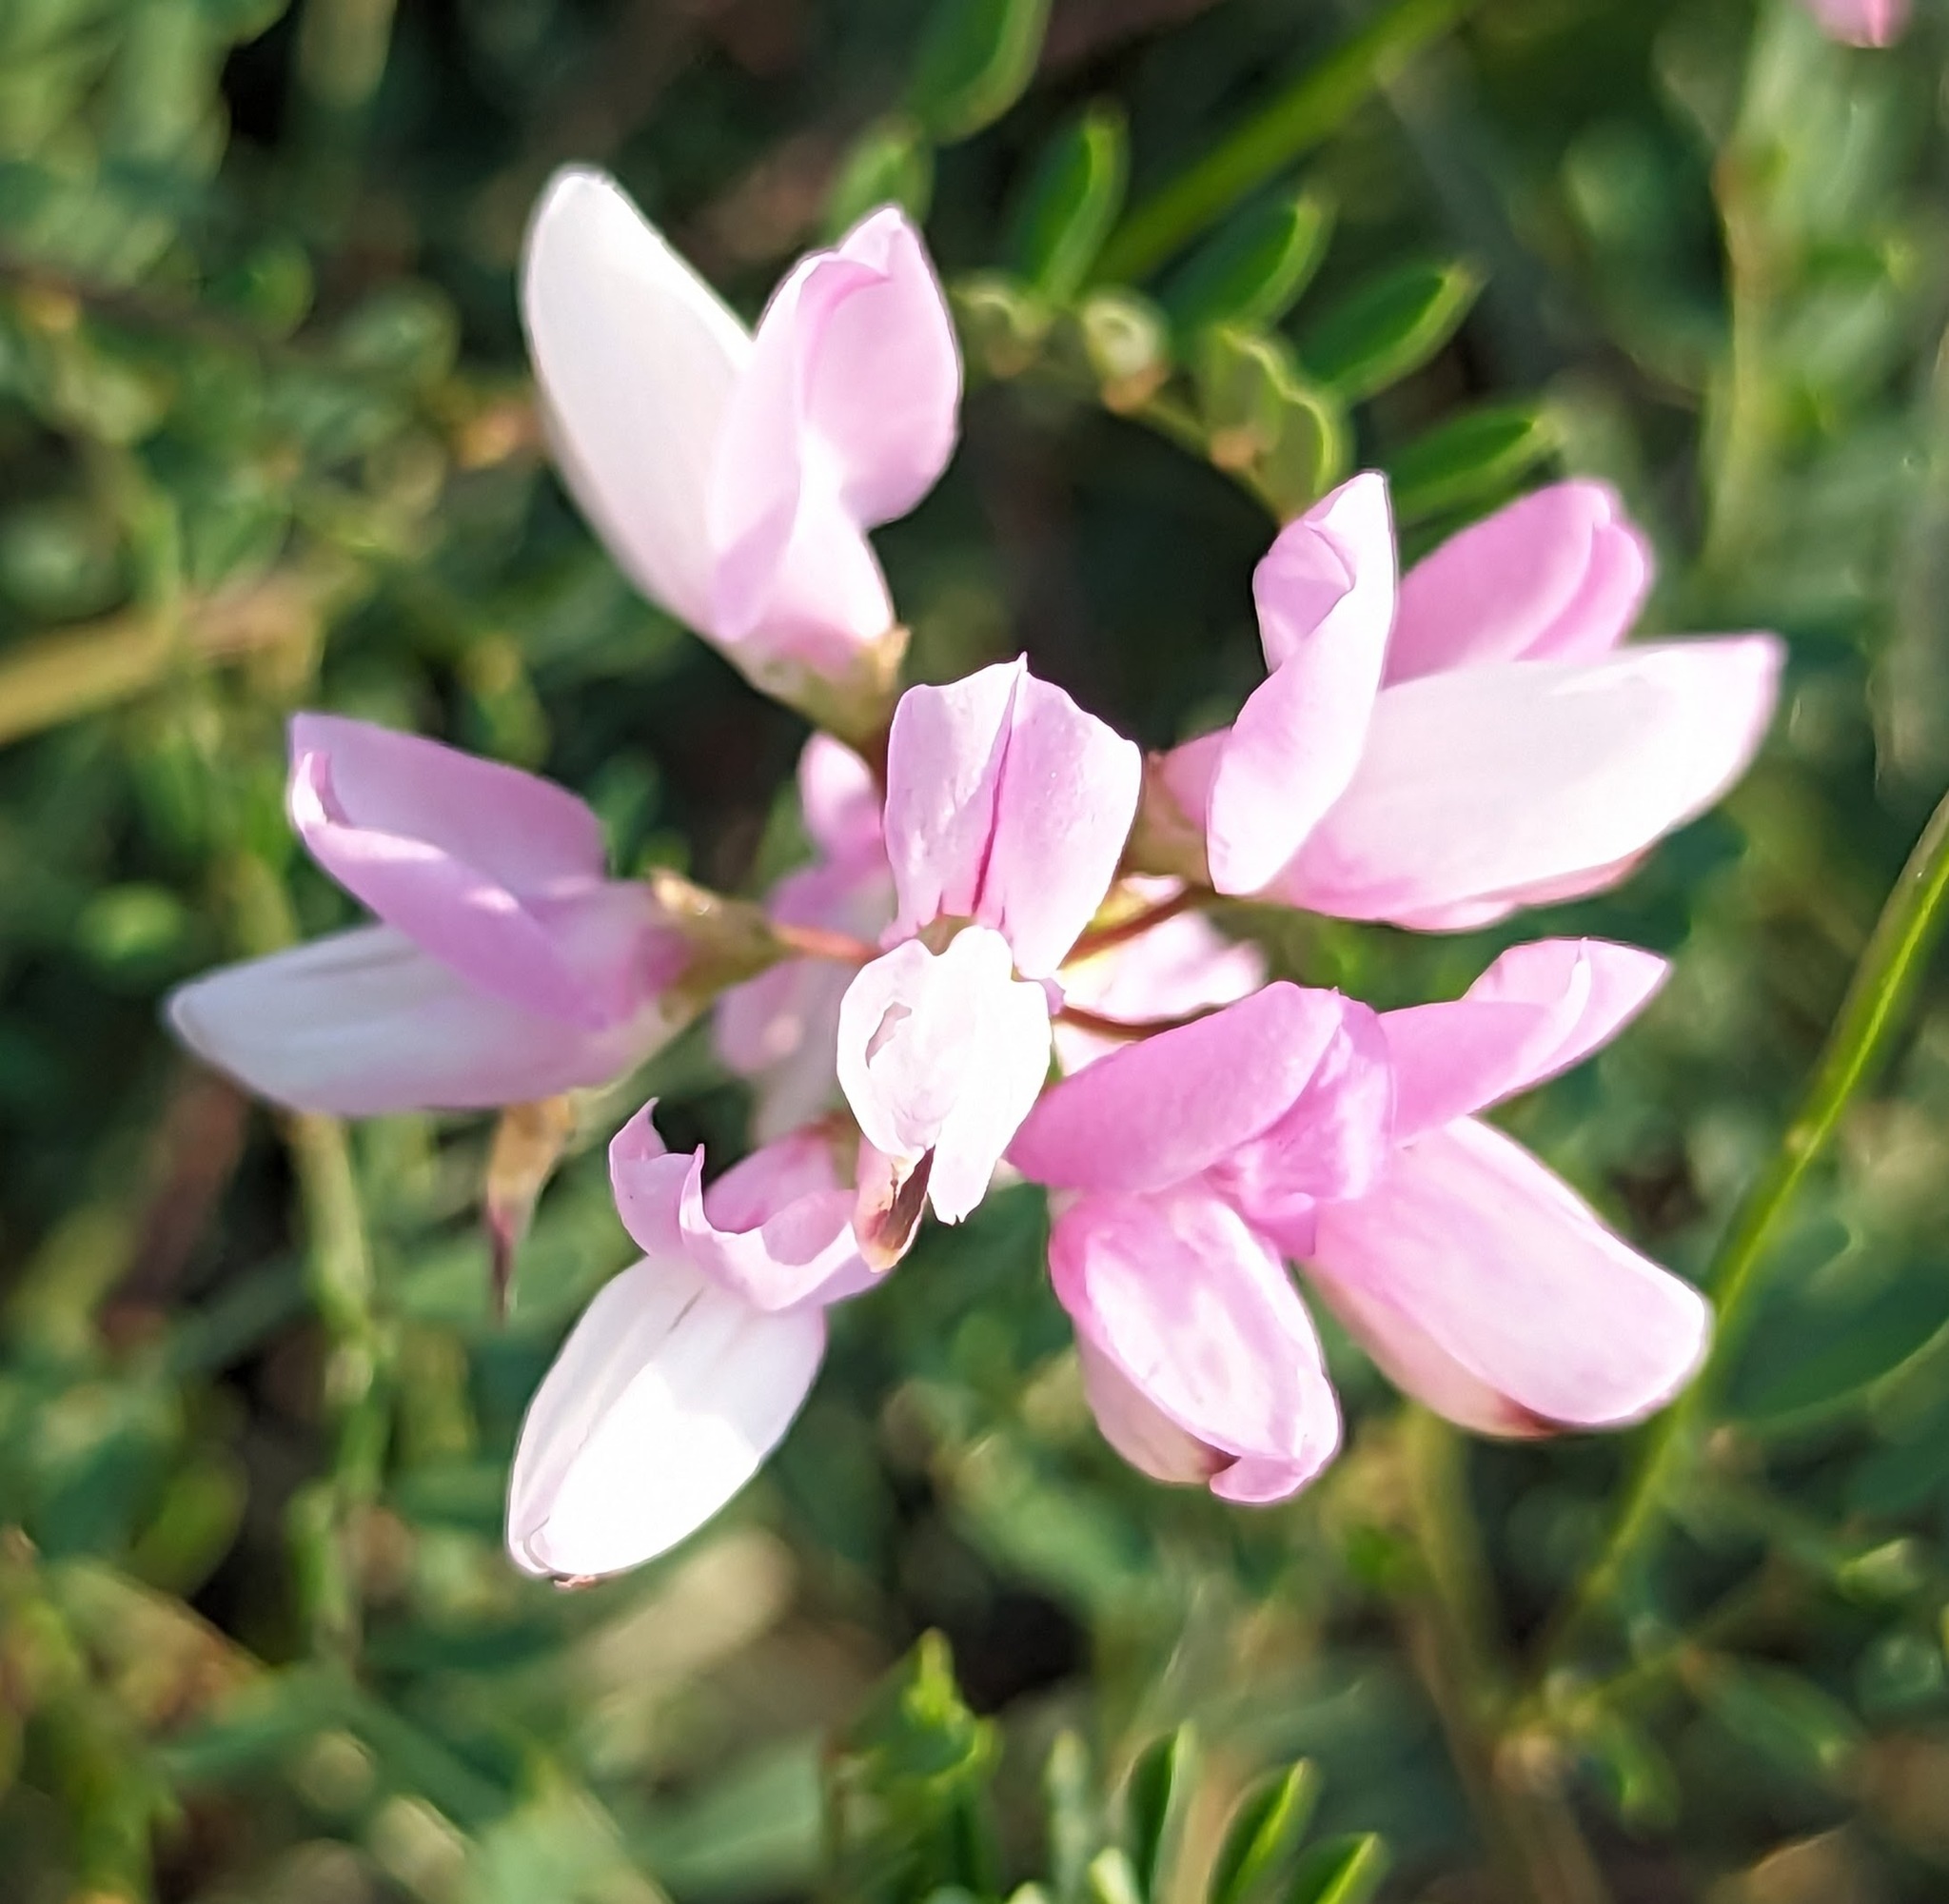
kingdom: Plantae
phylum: Tracheophyta
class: Magnoliopsida
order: Fabales
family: Fabaceae
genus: Coronilla
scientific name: Coronilla varia
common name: Crownvetch
